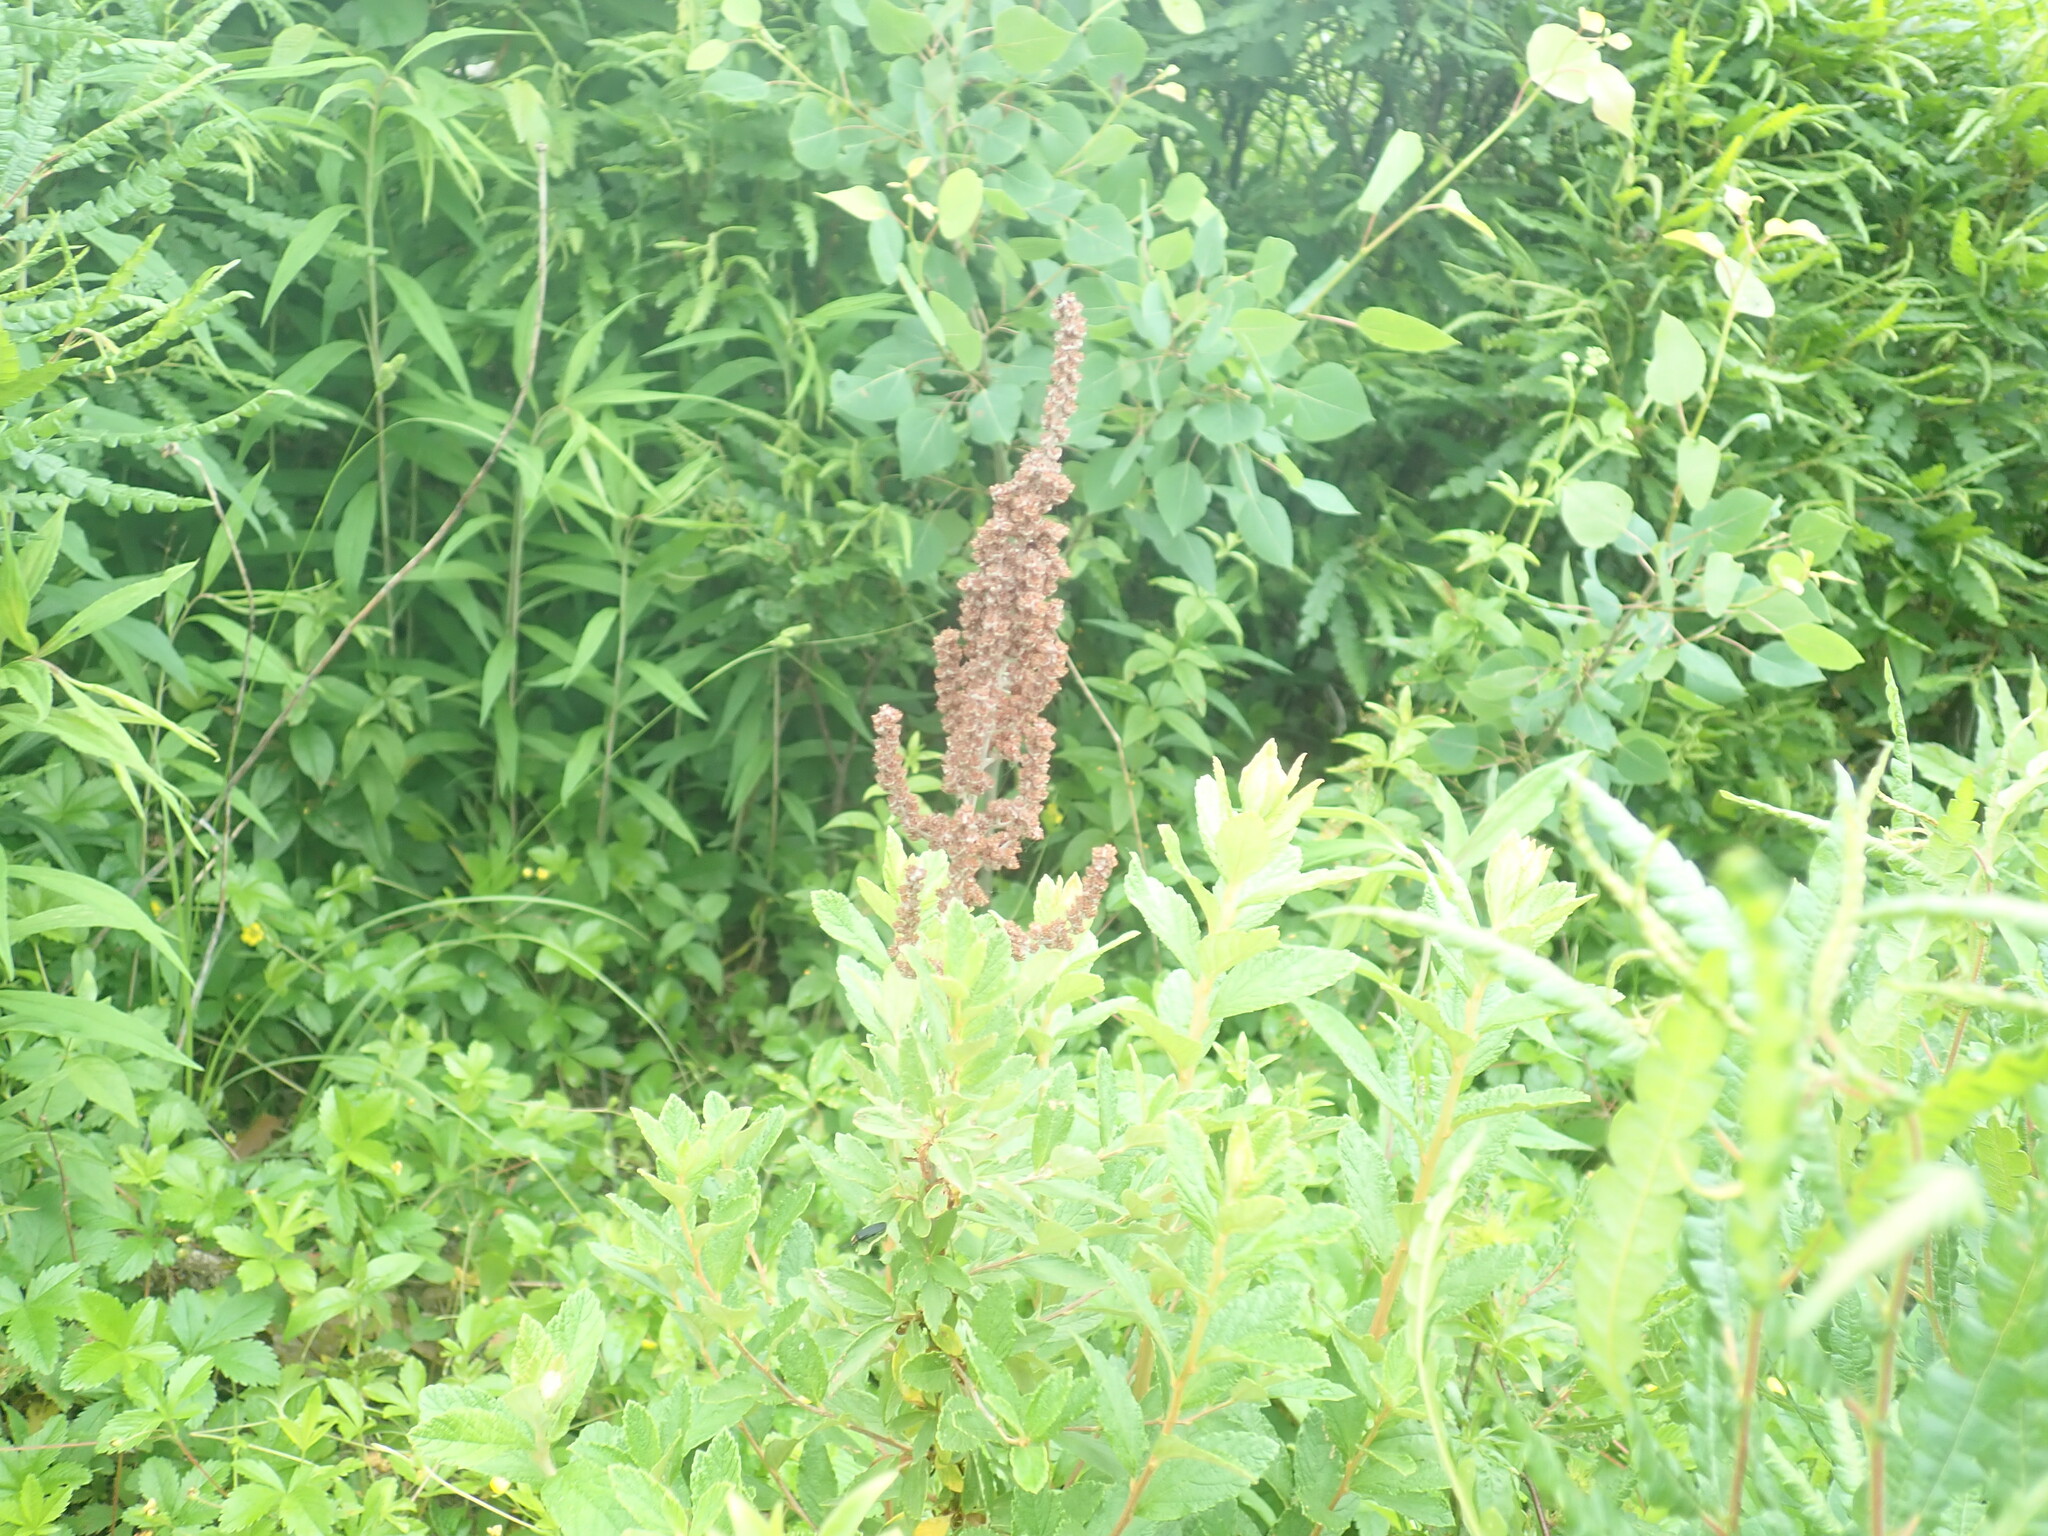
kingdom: Plantae
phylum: Tracheophyta
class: Magnoliopsida
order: Rosales
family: Rosaceae
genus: Spiraea
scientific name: Spiraea tomentosa
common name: Hardhack
